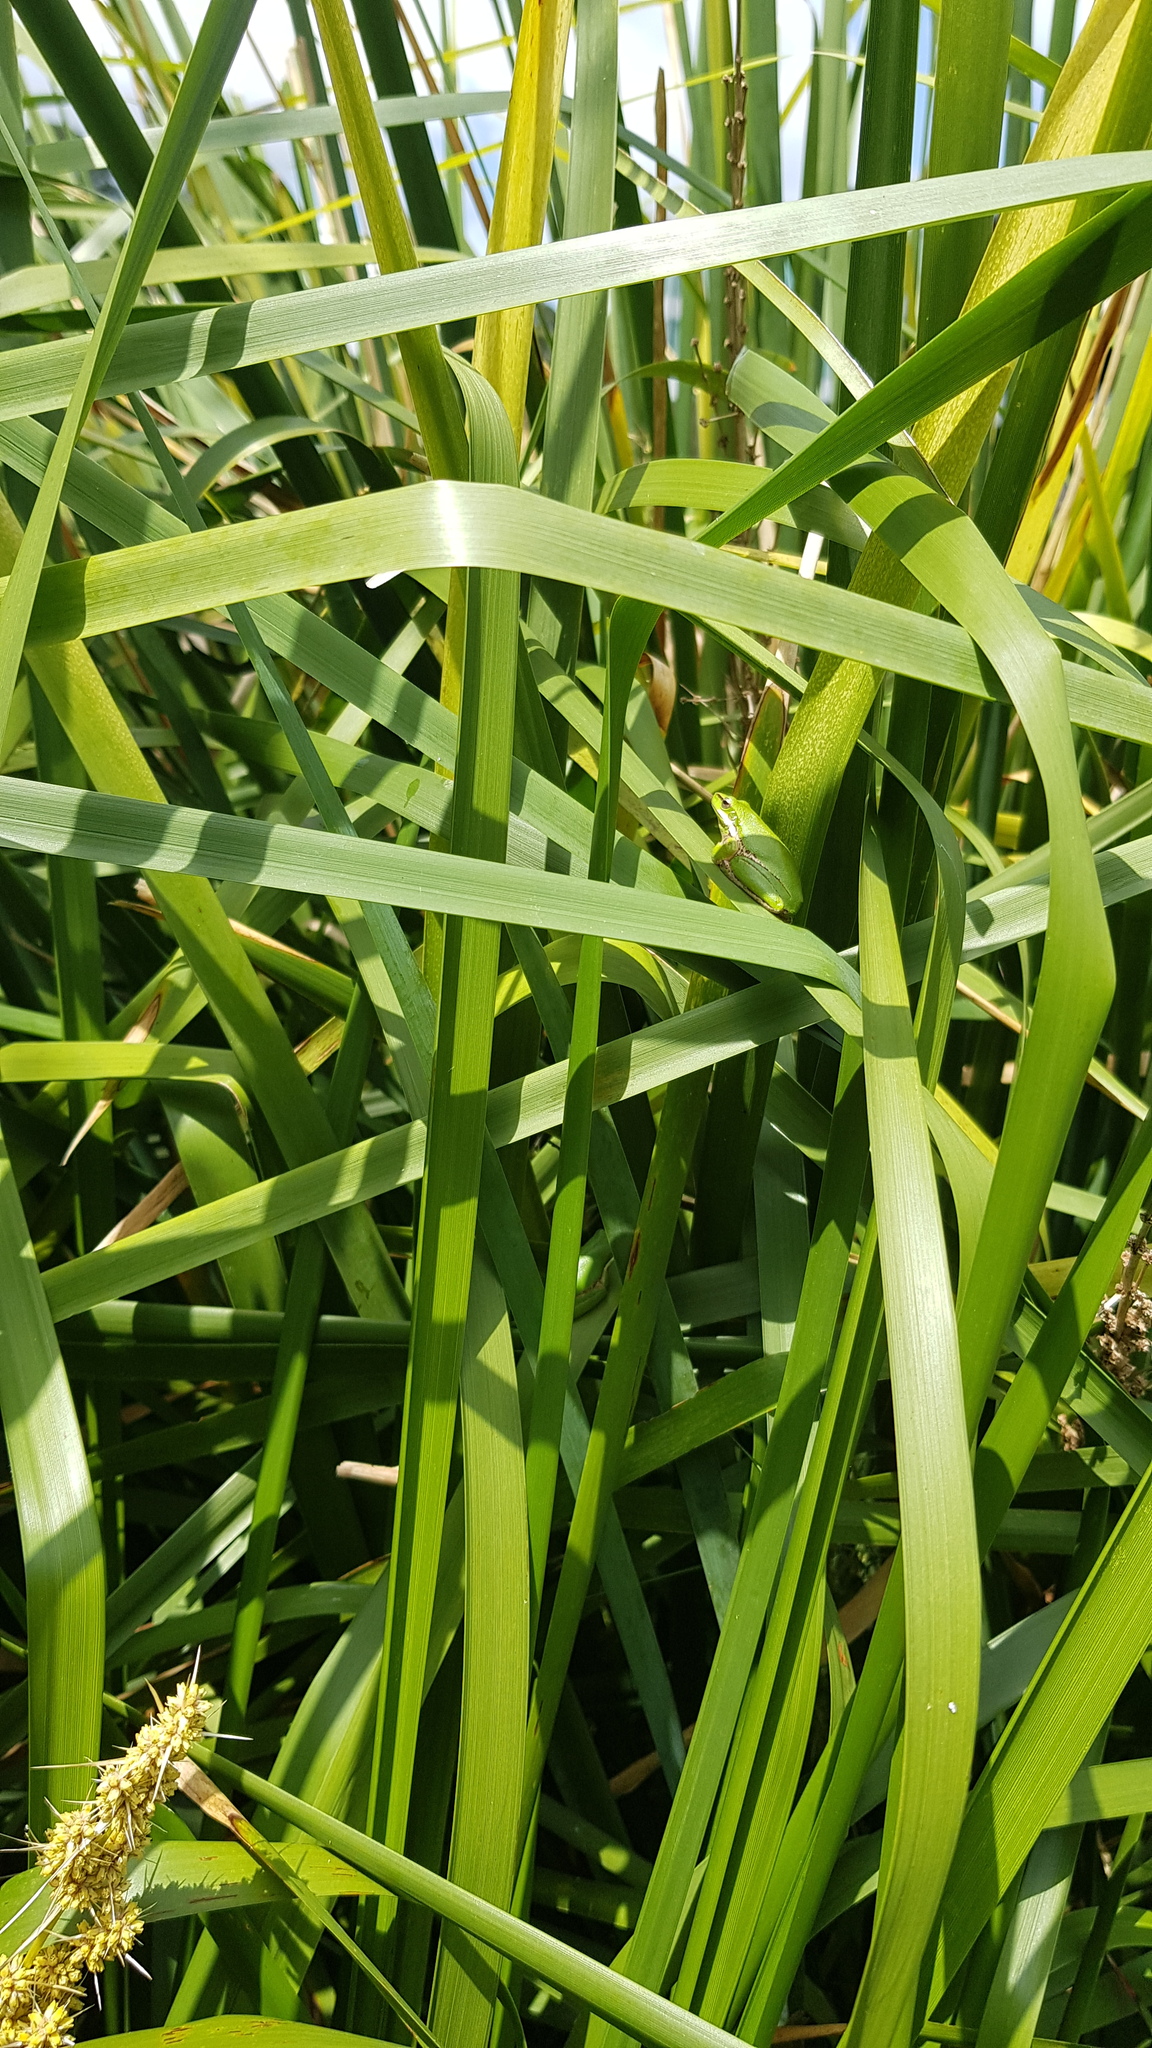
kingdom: Animalia
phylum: Chordata
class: Amphibia
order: Anura
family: Pelodryadidae
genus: Litoria
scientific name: Litoria fallax
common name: Eastern dwarf treefrog
